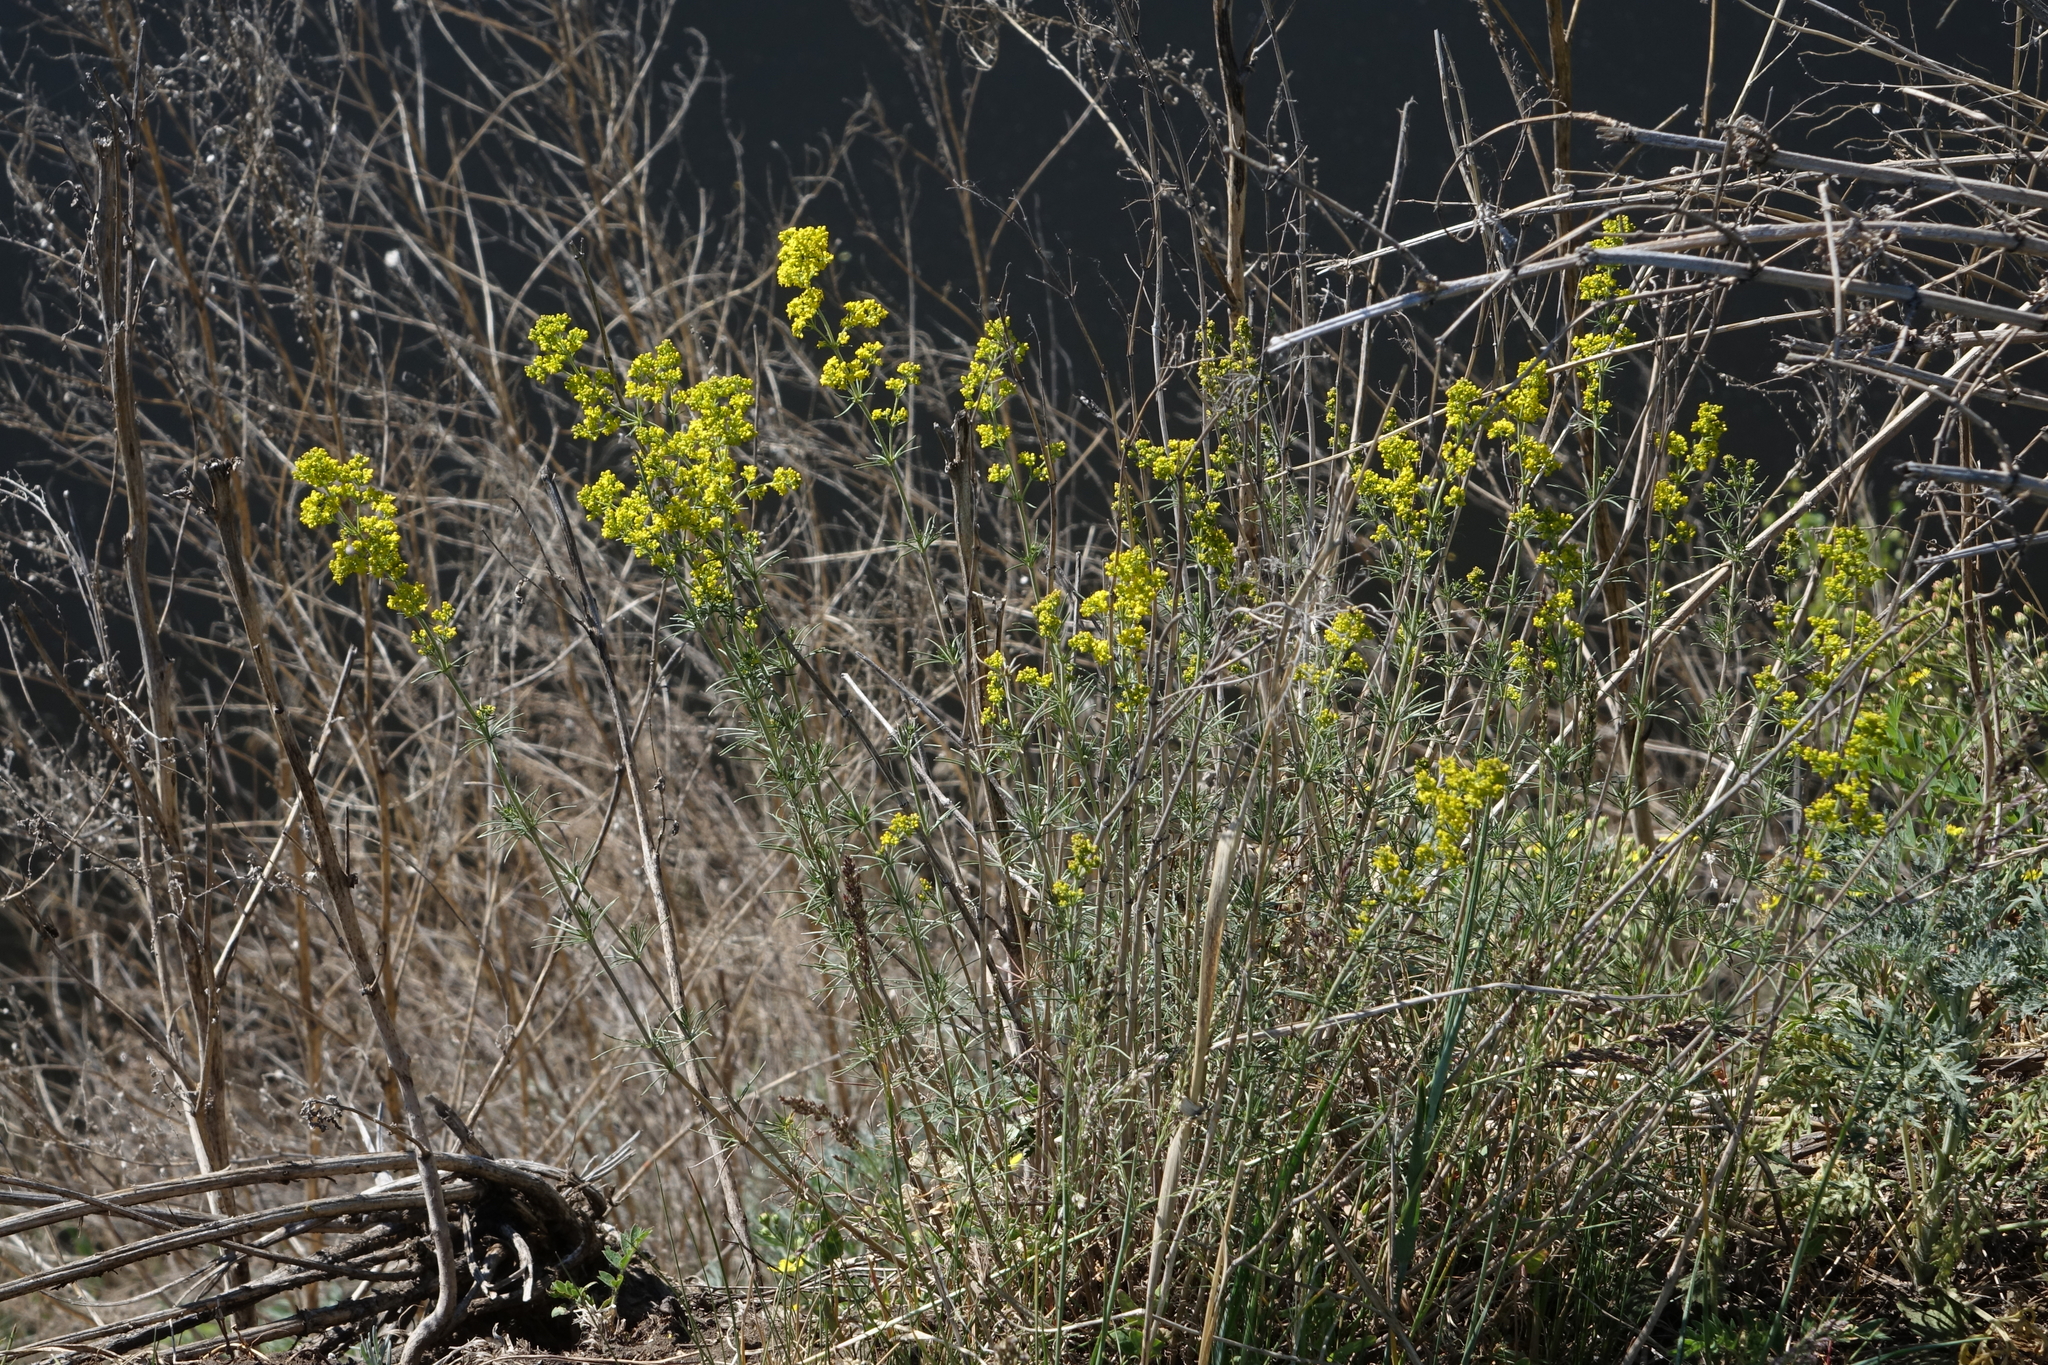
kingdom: Plantae
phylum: Tracheophyta
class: Magnoliopsida
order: Gentianales
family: Rubiaceae
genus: Galium
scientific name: Galium verum
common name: Lady's bedstraw
